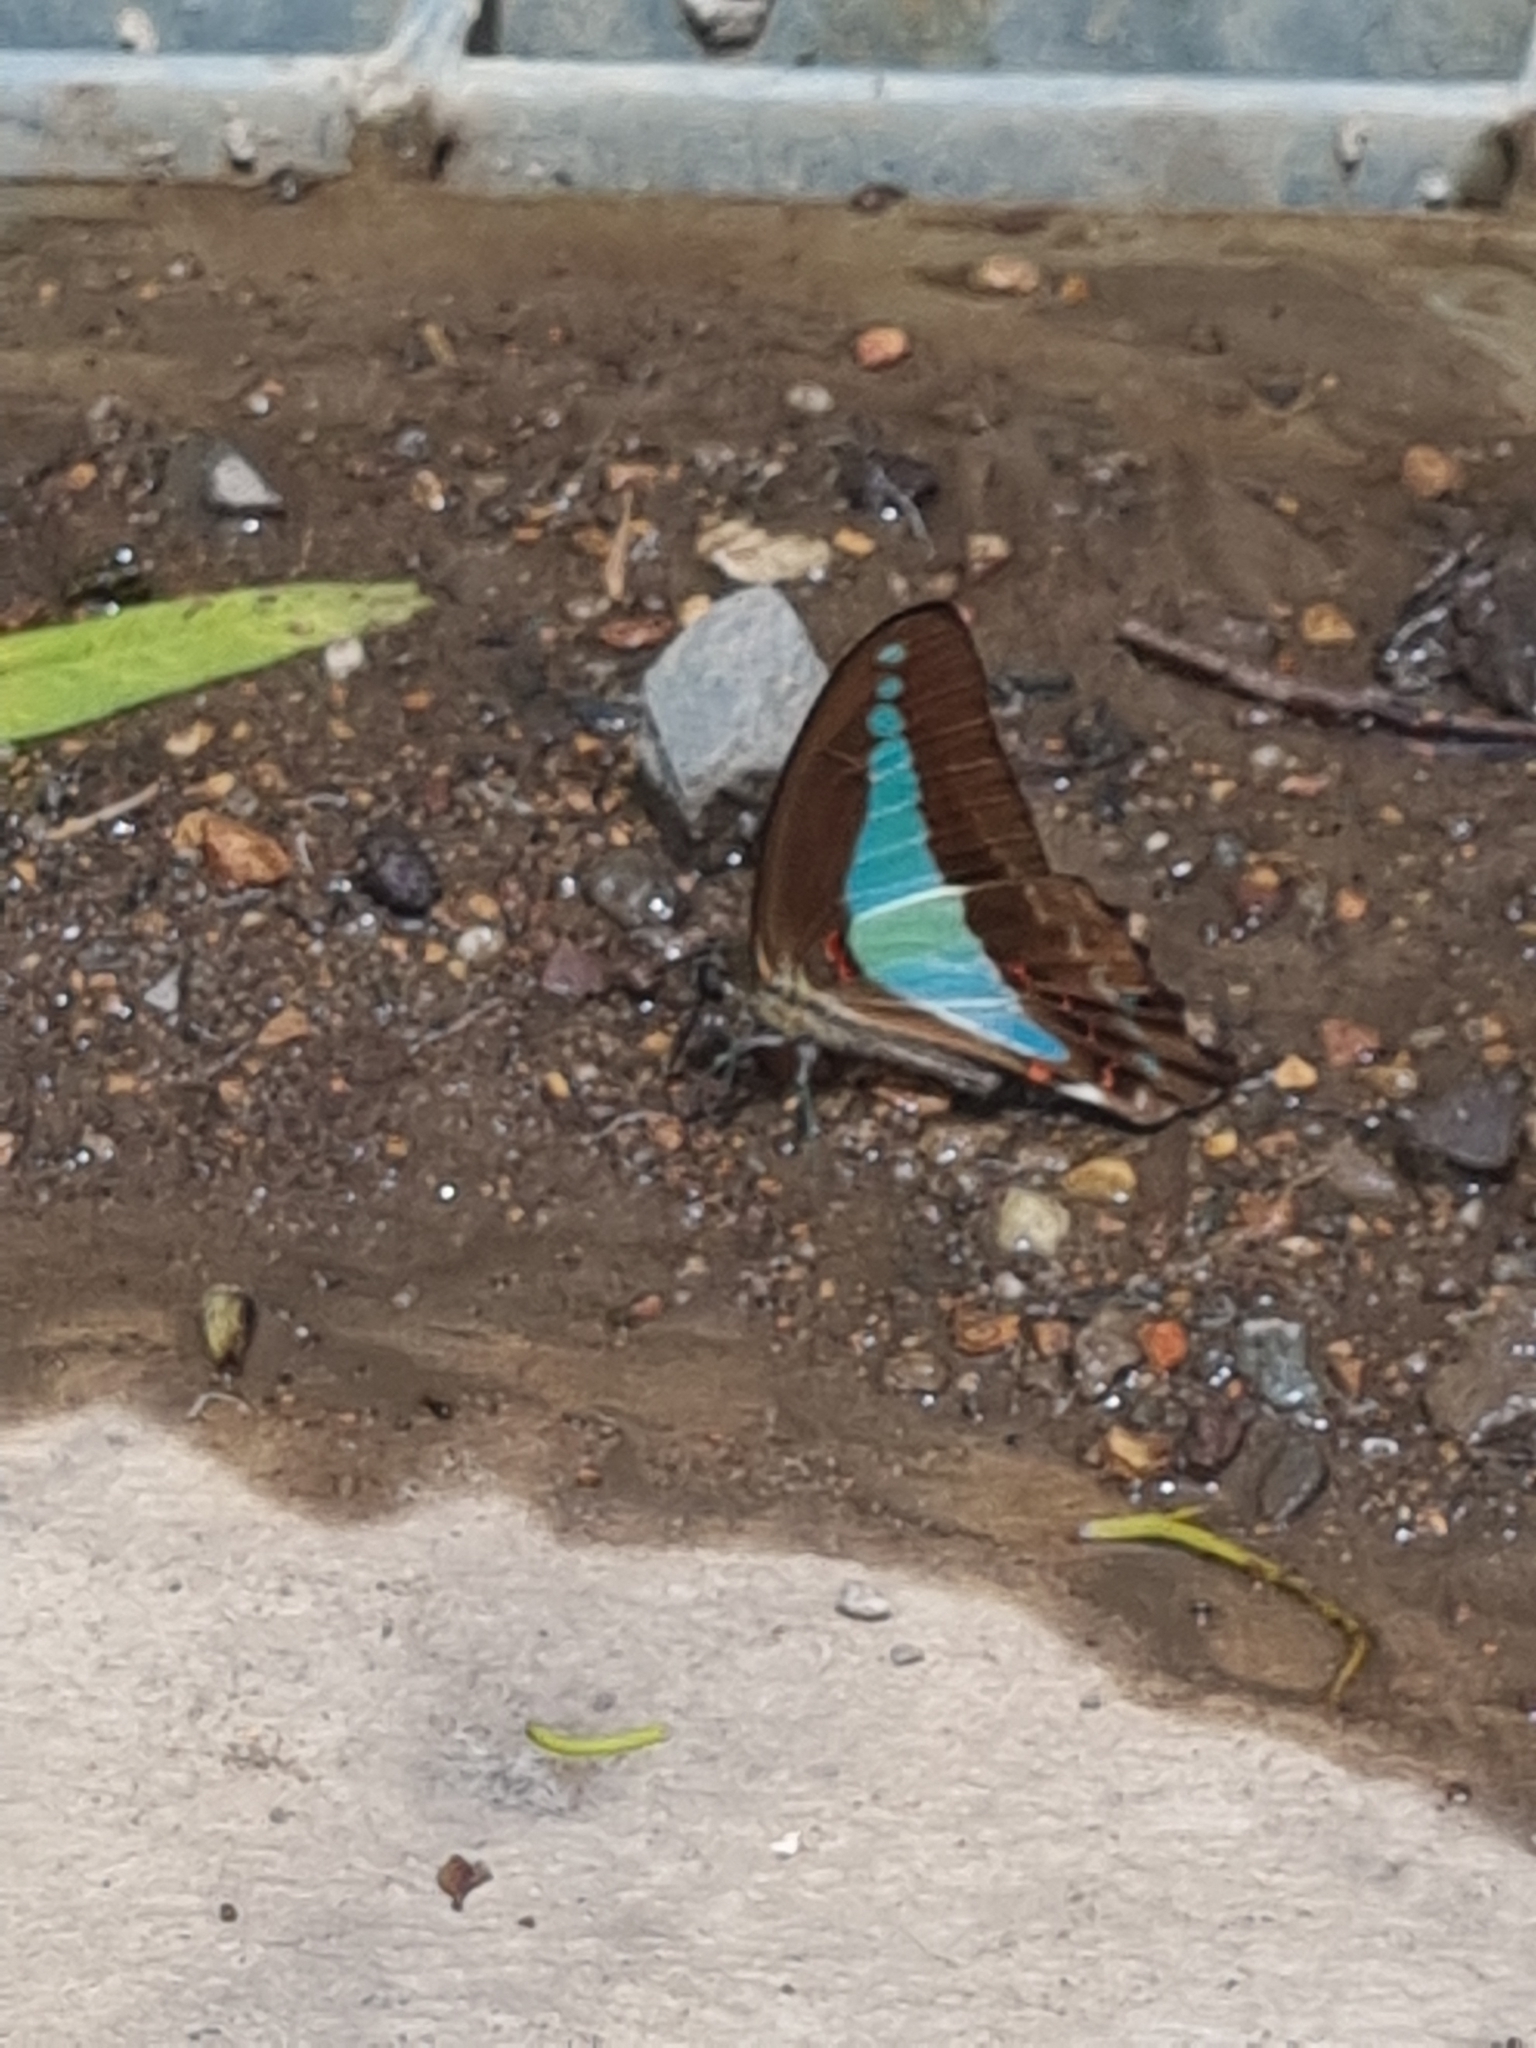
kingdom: Animalia
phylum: Arthropoda
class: Insecta
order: Lepidoptera
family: Papilionidae
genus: Graphium
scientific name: Graphium
